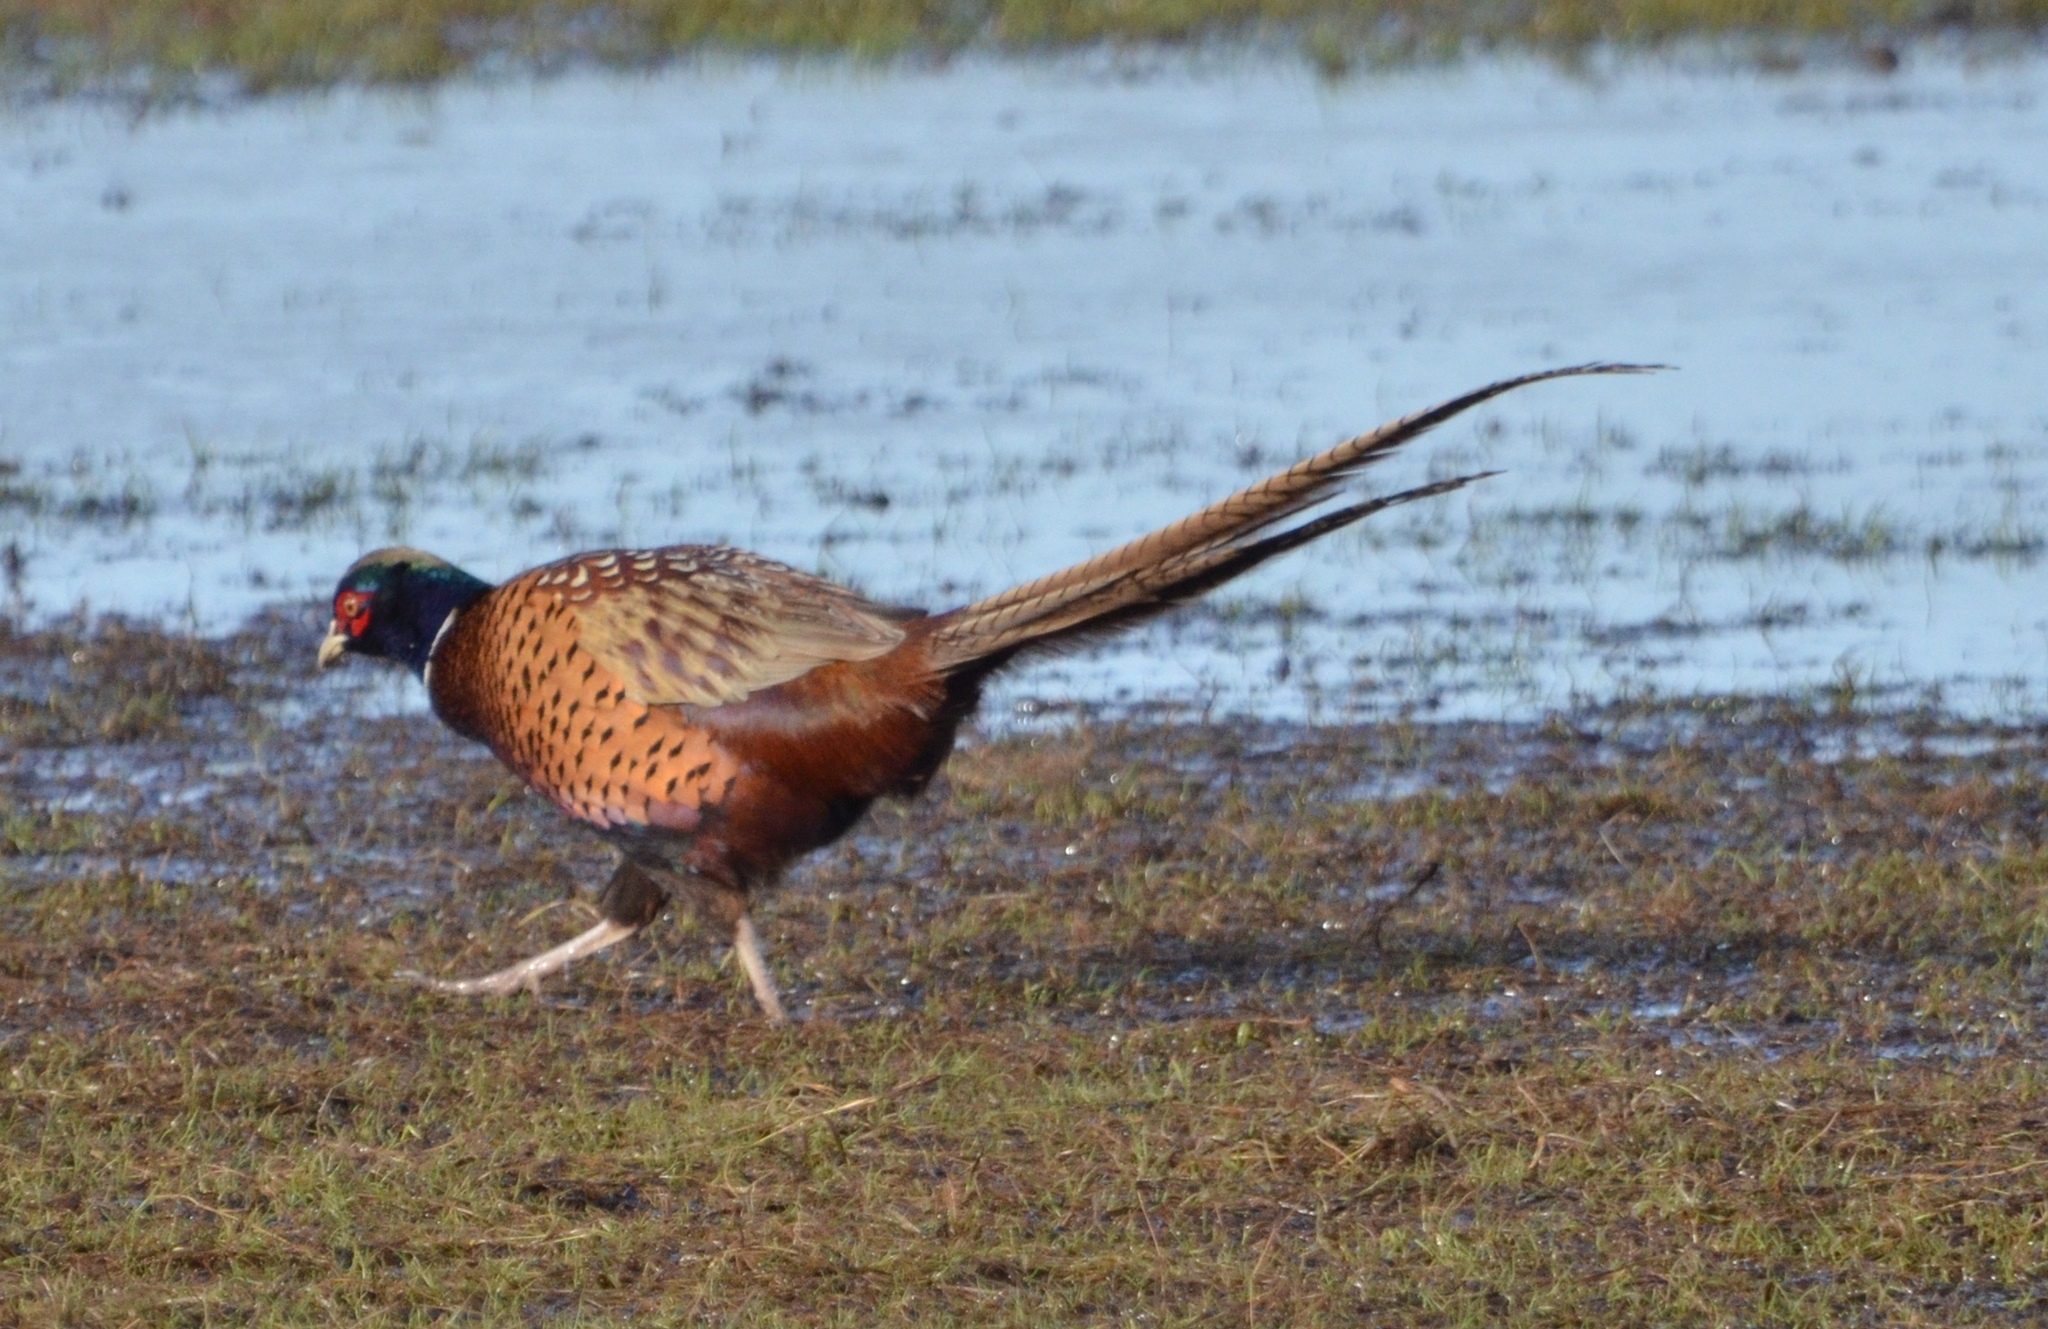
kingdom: Animalia
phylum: Chordata
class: Aves
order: Galliformes
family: Phasianidae
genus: Phasianus
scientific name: Phasianus colchicus
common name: Common pheasant
